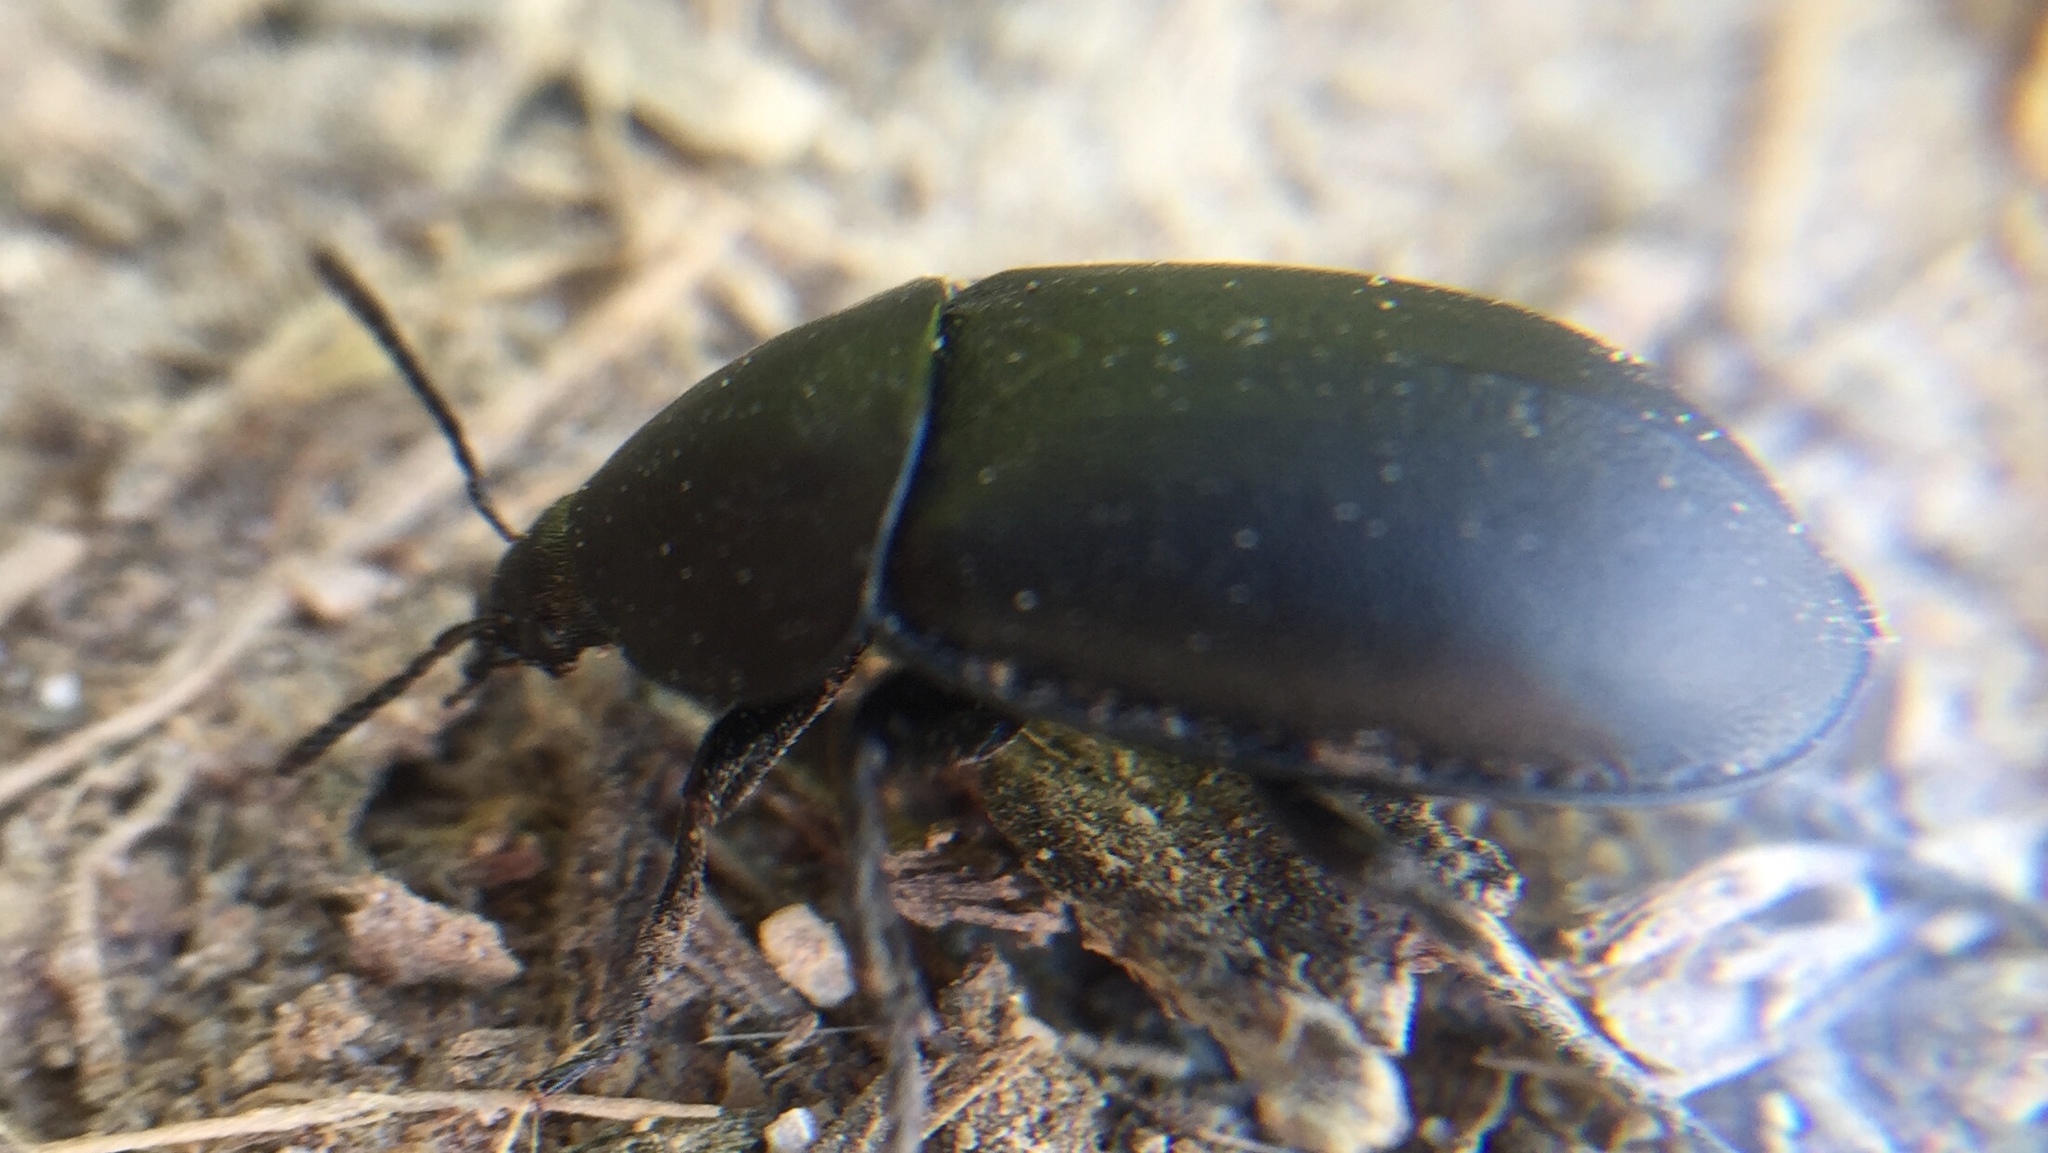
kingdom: Animalia
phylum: Arthropoda
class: Insecta
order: Coleoptera
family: Staphylinidae
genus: Silpha
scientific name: Silpha laevigata
